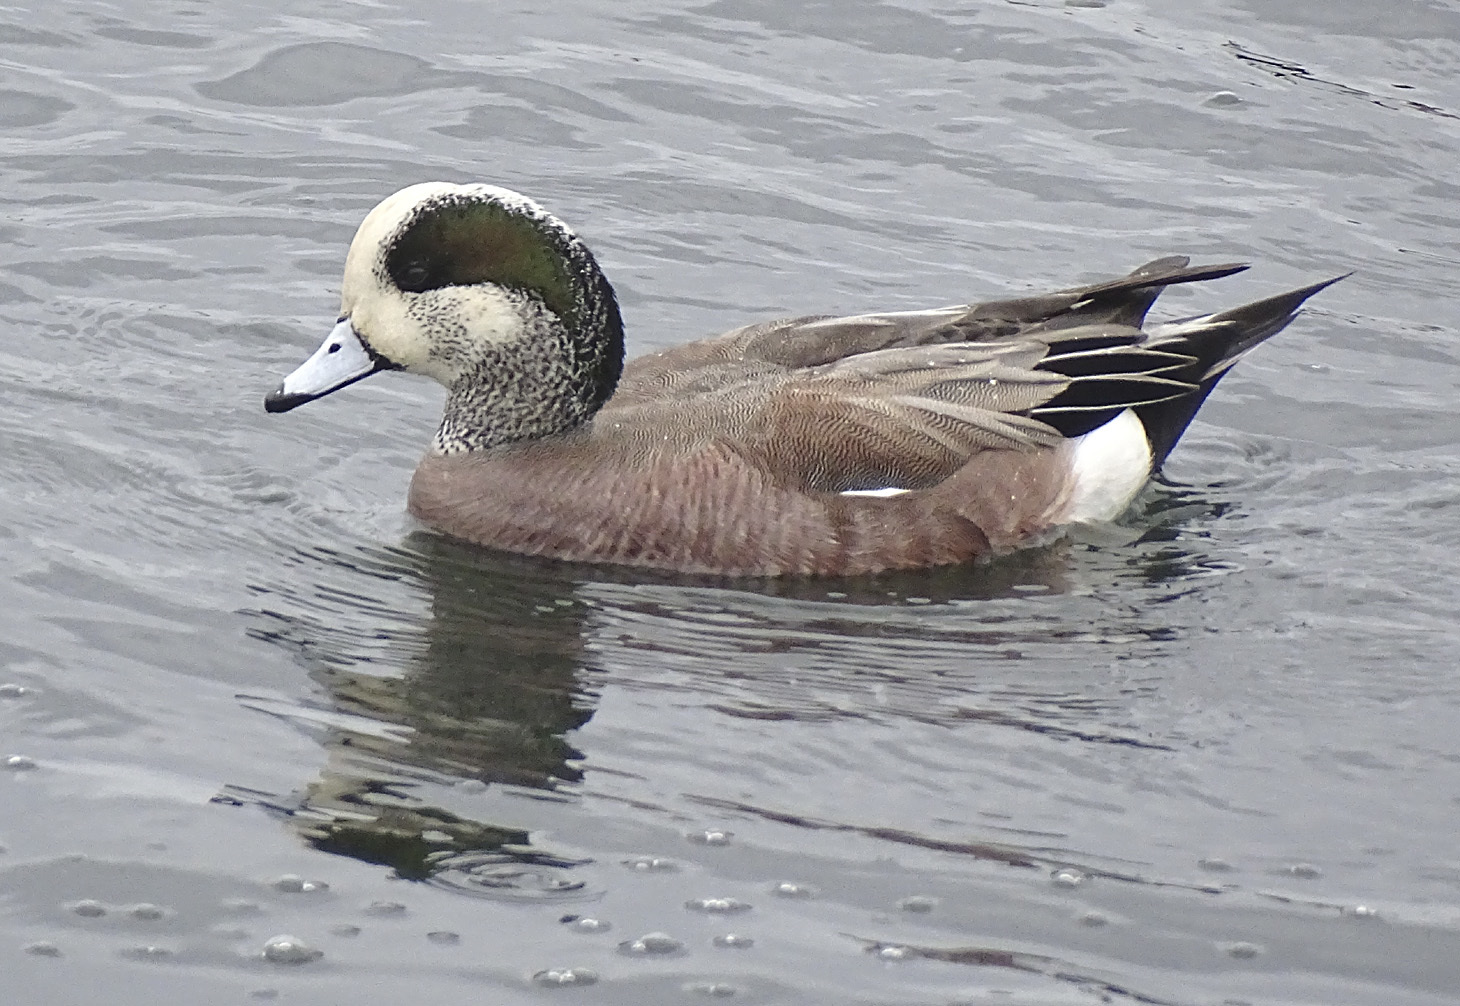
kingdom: Animalia
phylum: Chordata
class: Aves
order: Anseriformes
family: Anatidae
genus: Mareca
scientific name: Mareca americana
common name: American wigeon
